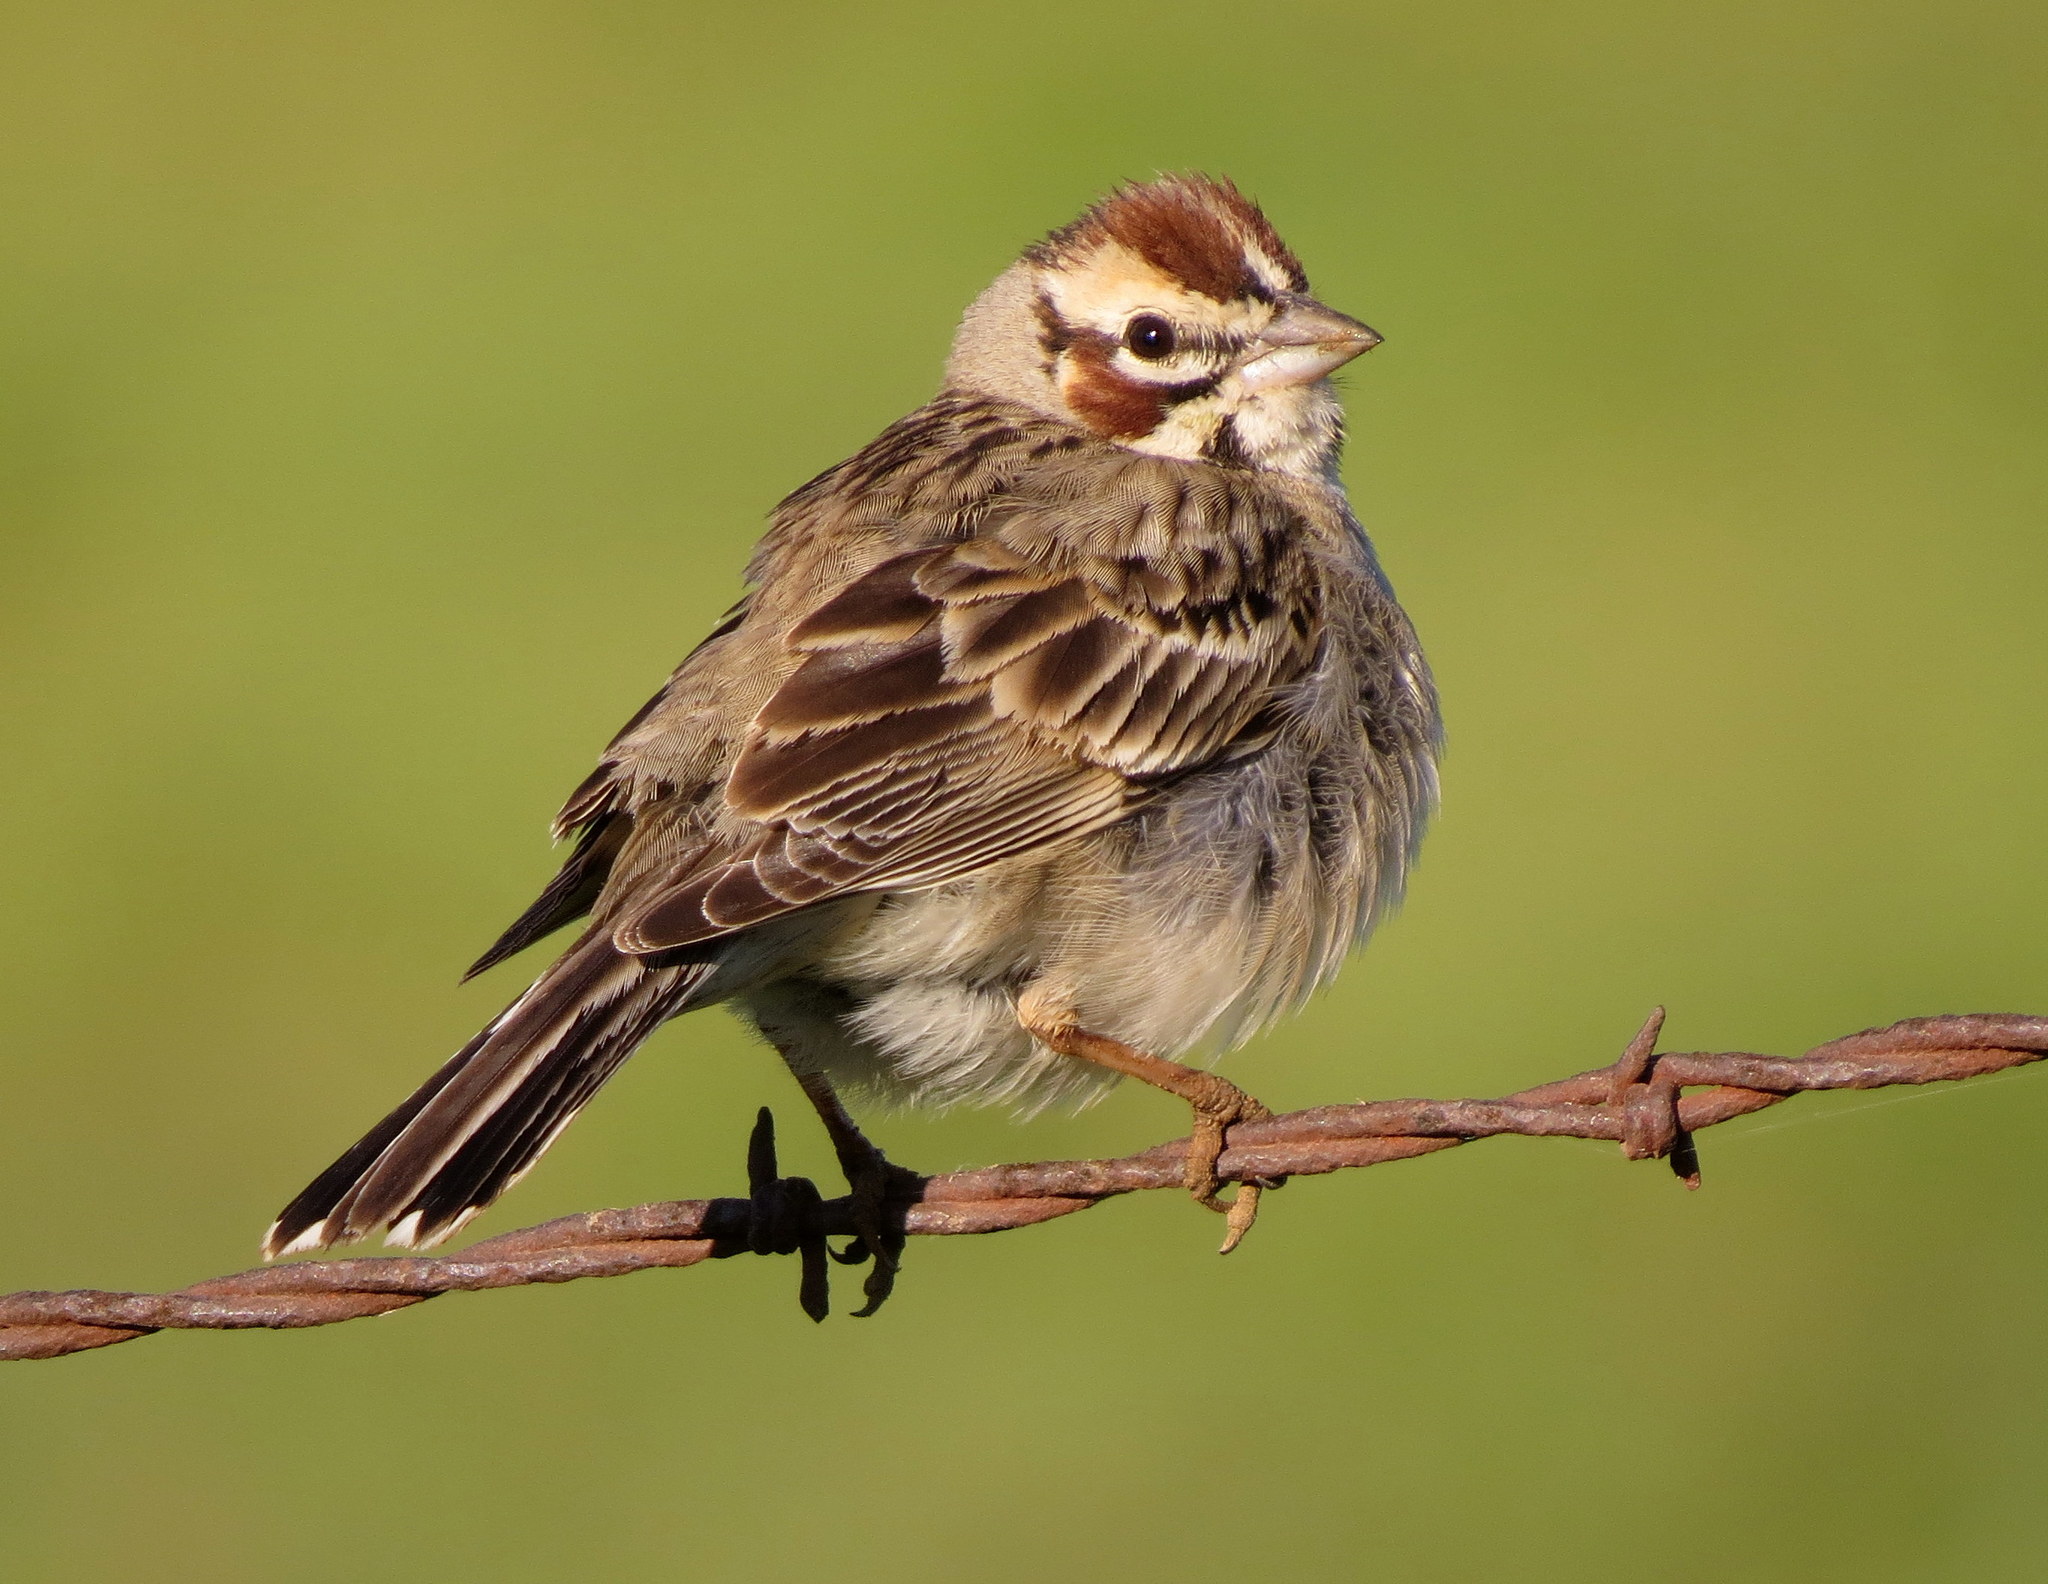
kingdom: Animalia
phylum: Chordata
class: Aves
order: Passeriformes
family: Passerellidae
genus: Chondestes
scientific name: Chondestes grammacus
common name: Lark sparrow
